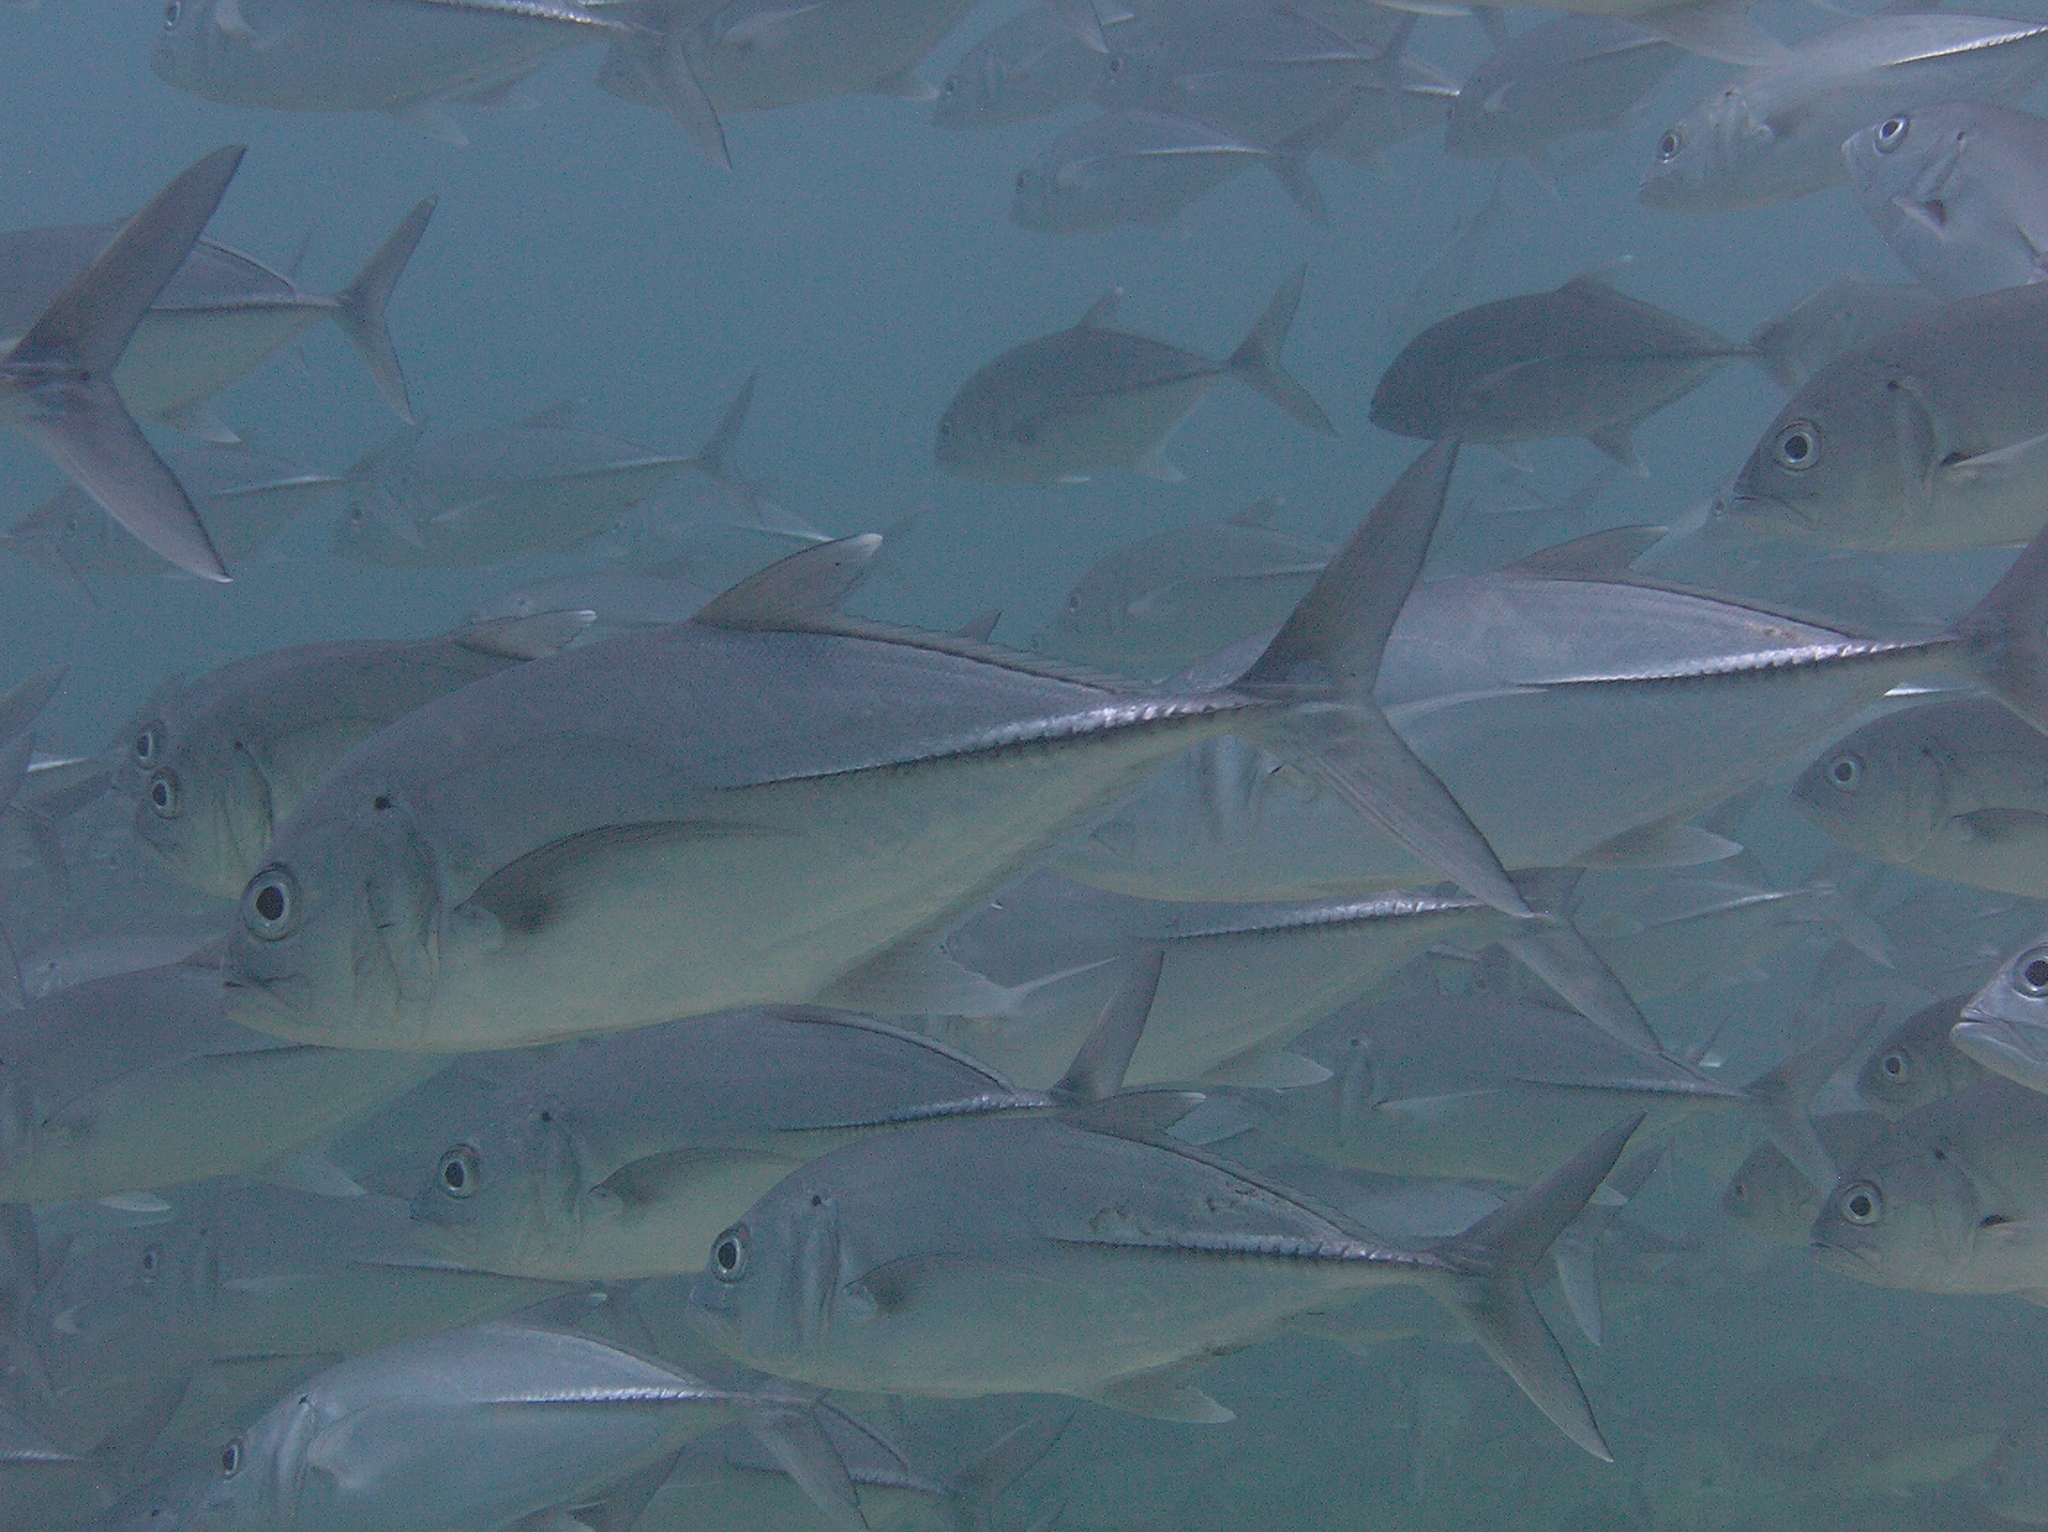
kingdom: Animalia
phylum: Chordata
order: Perciformes
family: Carangidae
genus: Caranx
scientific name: Caranx sexfasciatus
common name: Bigeye trevally
